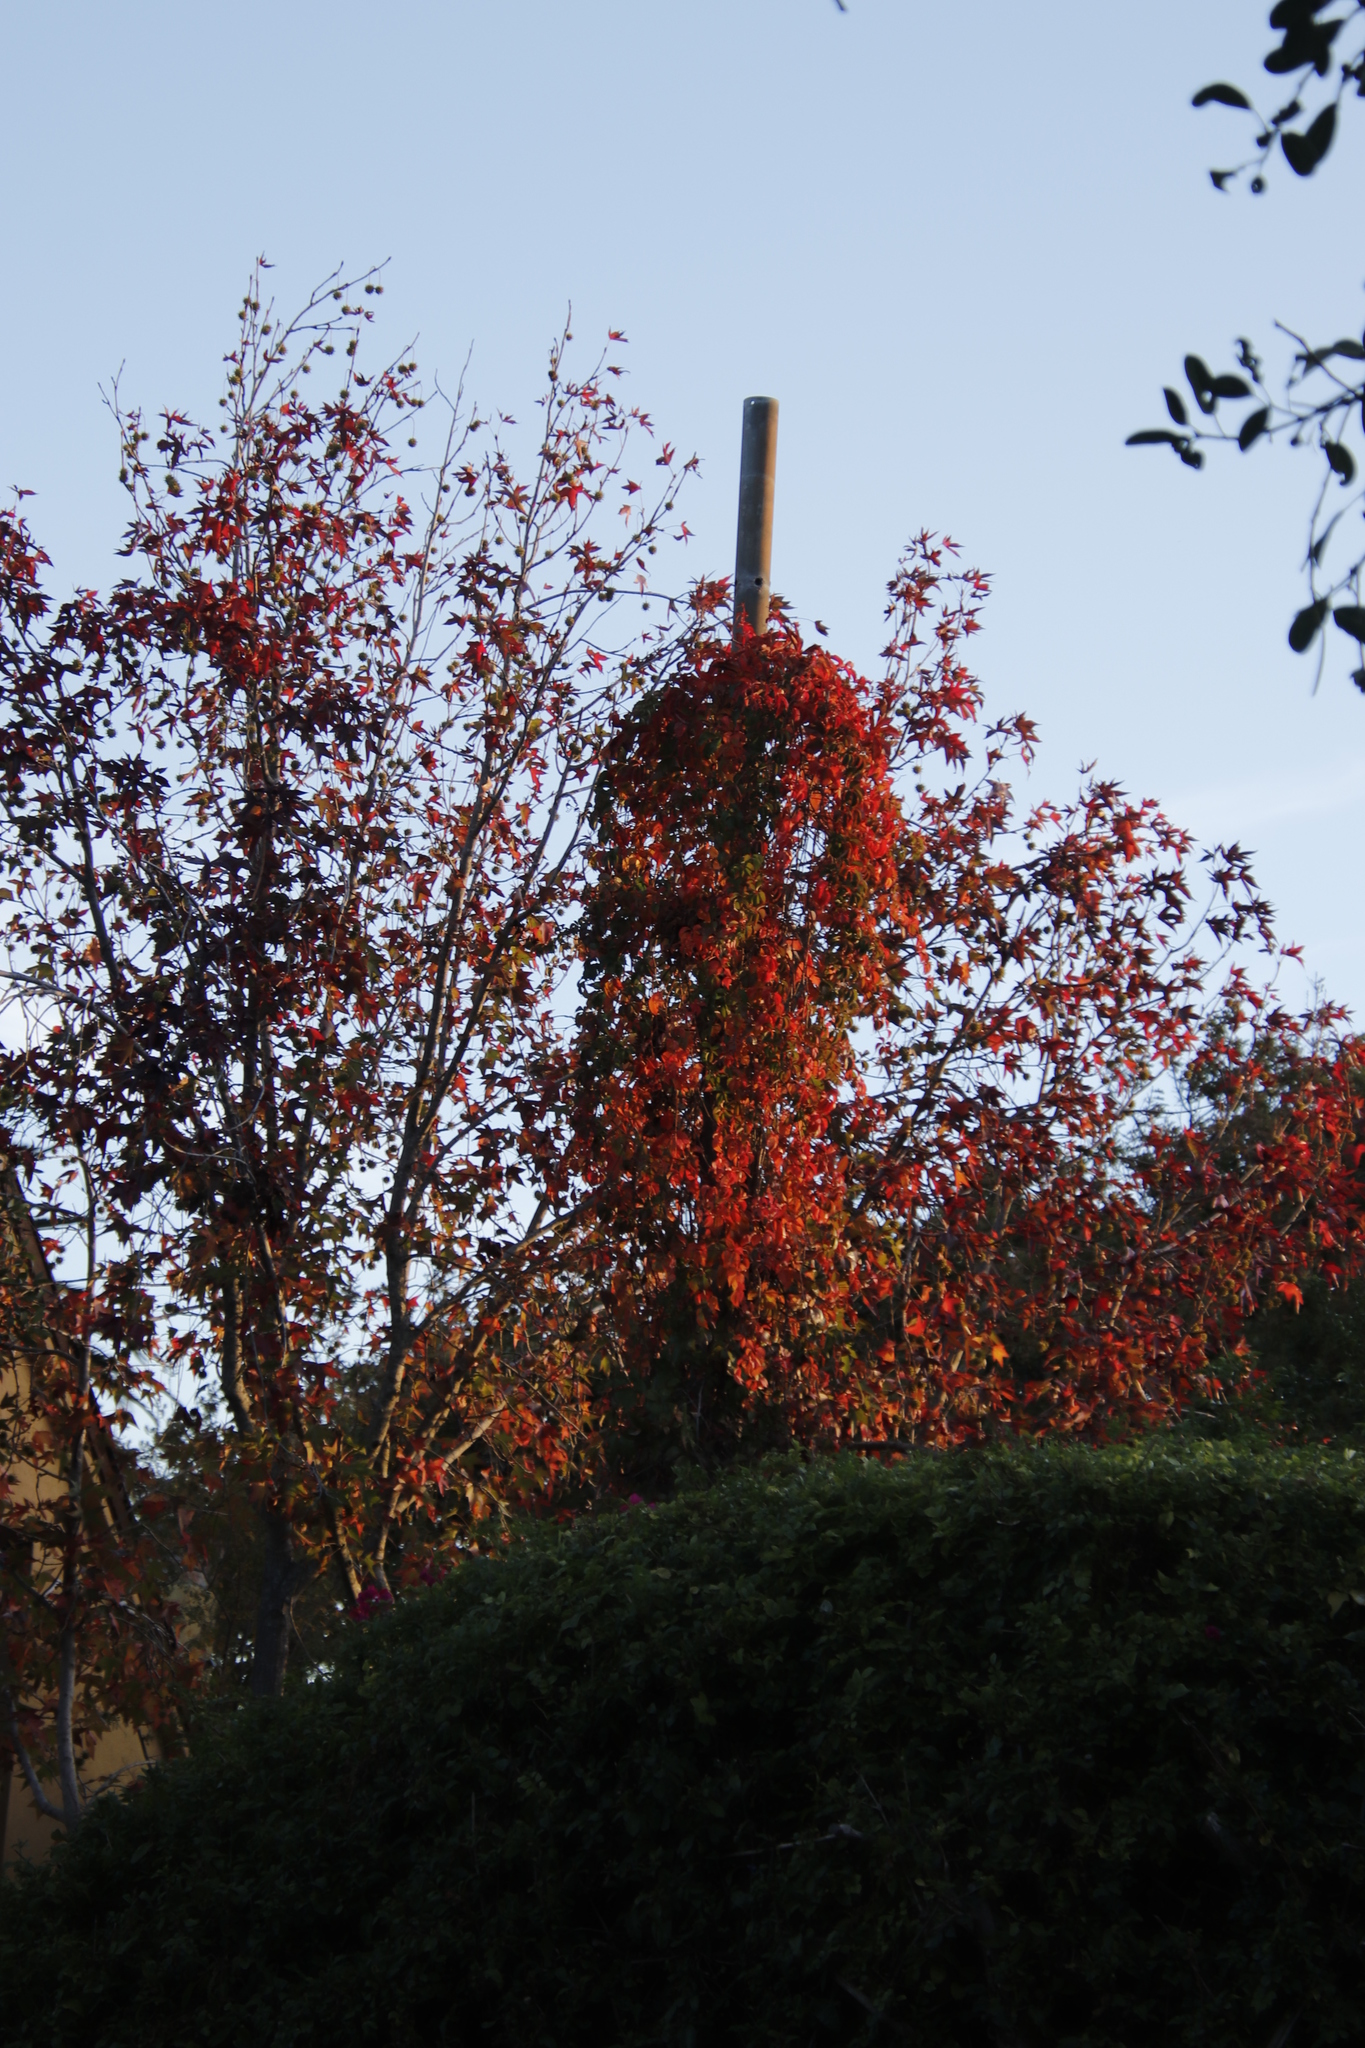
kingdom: Plantae
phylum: Tracheophyta
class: Magnoliopsida
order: Vitales
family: Vitaceae
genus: Parthenocissus
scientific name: Parthenocissus quinquefolia
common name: Virginia-creeper
